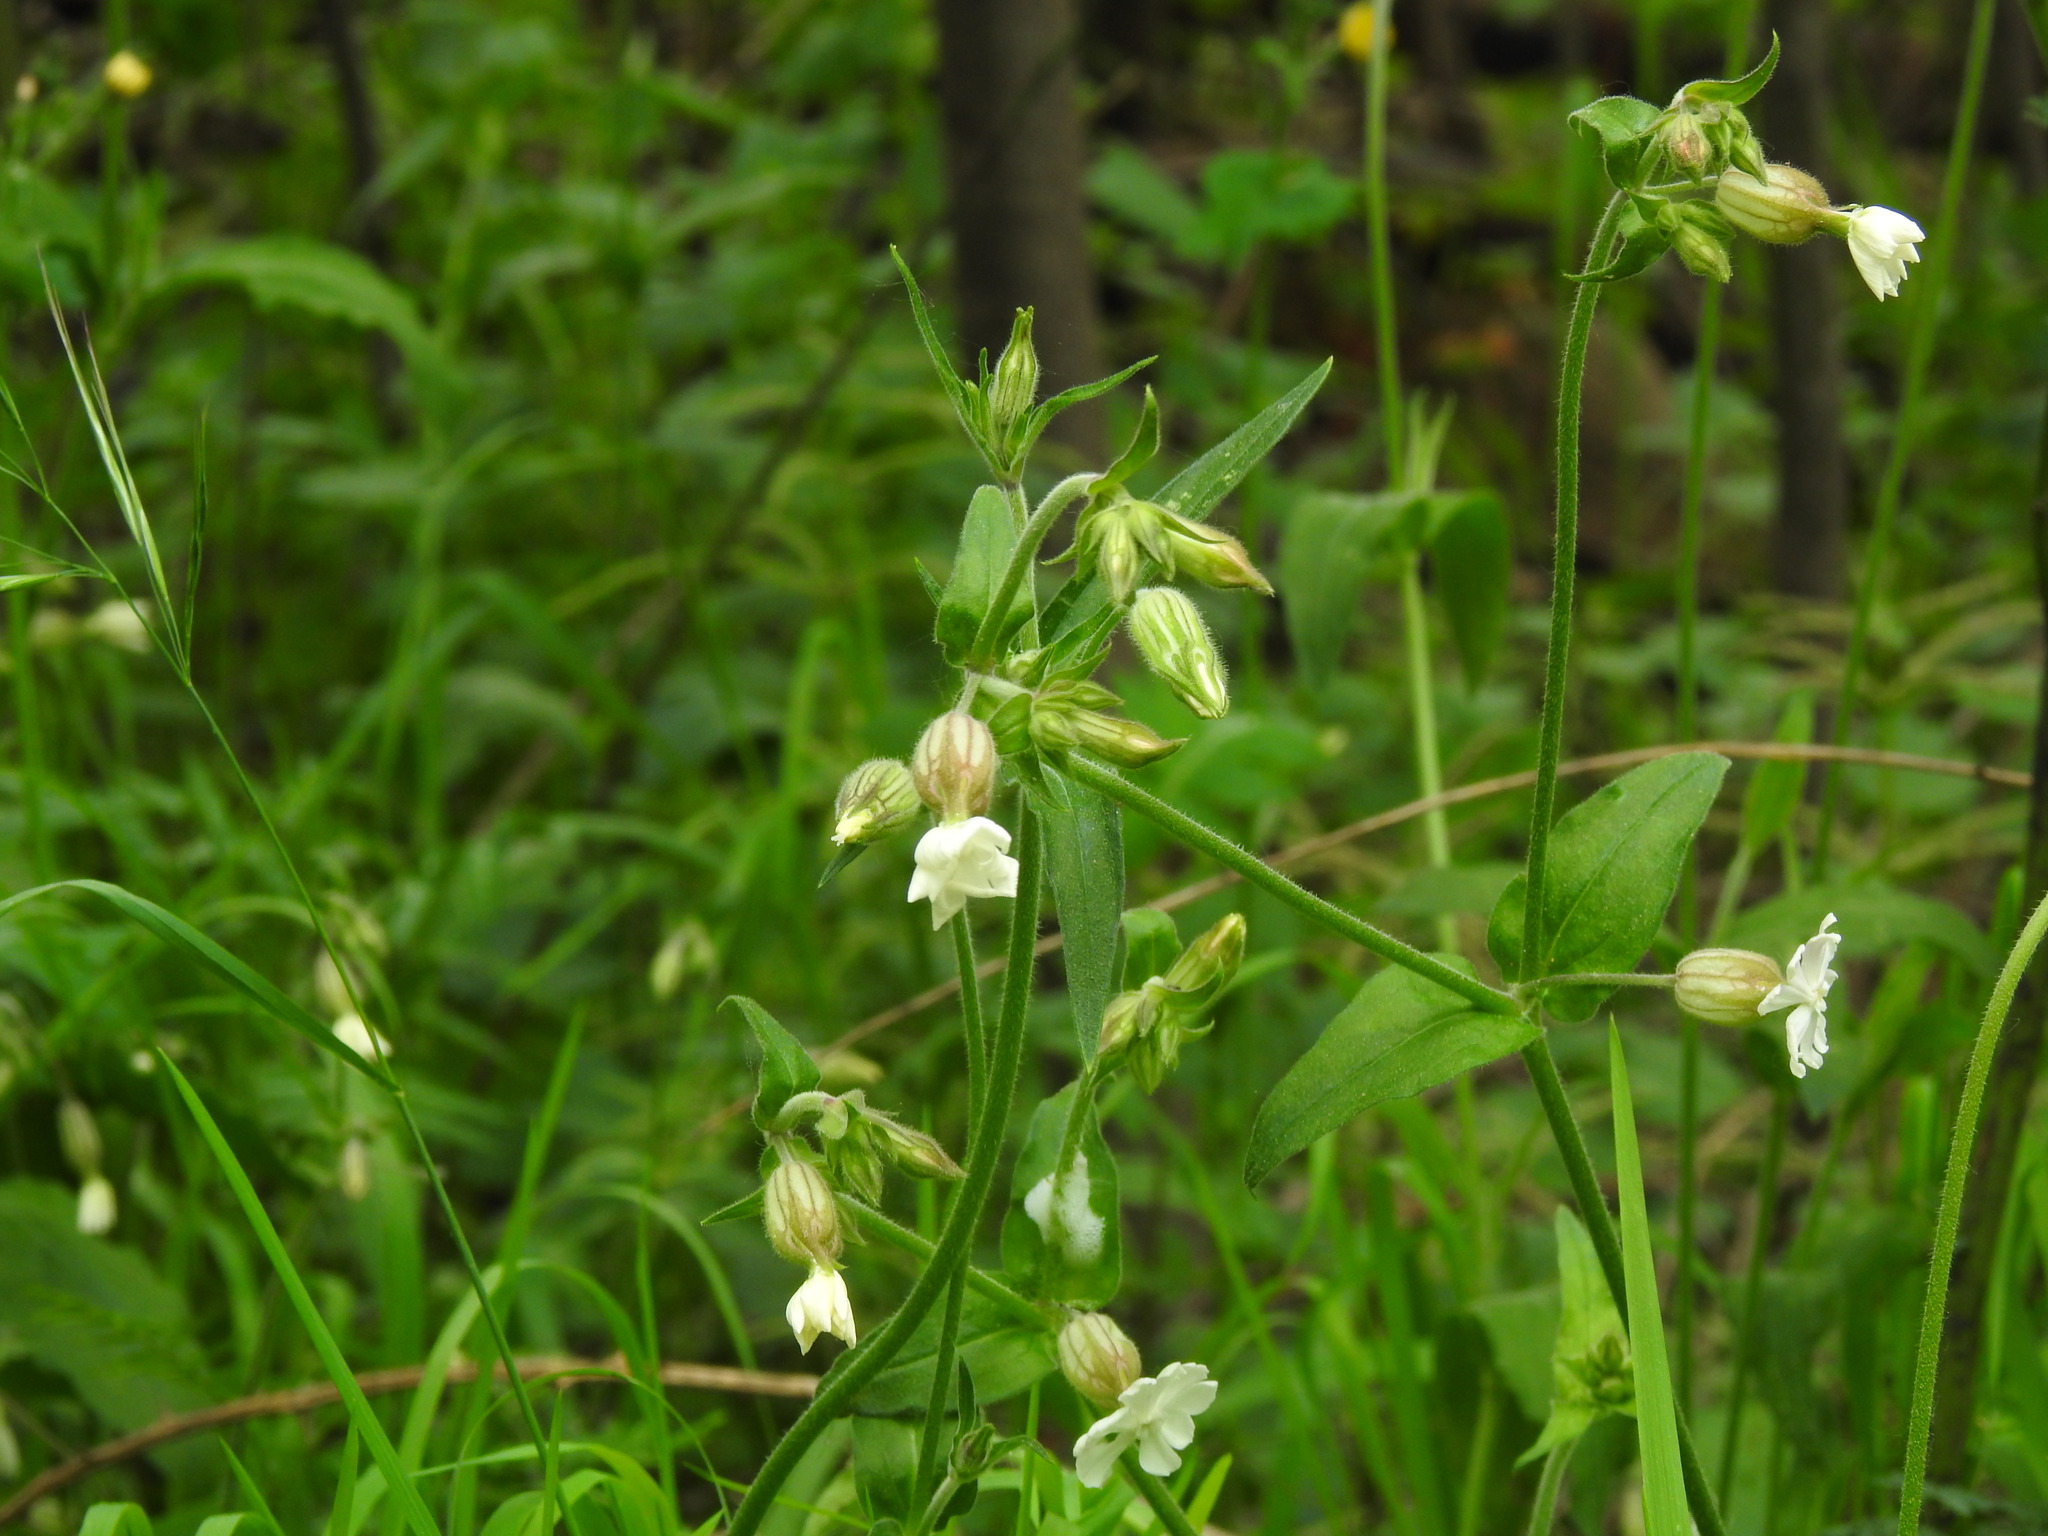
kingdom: Plantae
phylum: Tracheophyta
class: Magnoliopsida
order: Caryophyllales
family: Caryophyllaceae
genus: Silene
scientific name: Silene latifolia
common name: White campion
